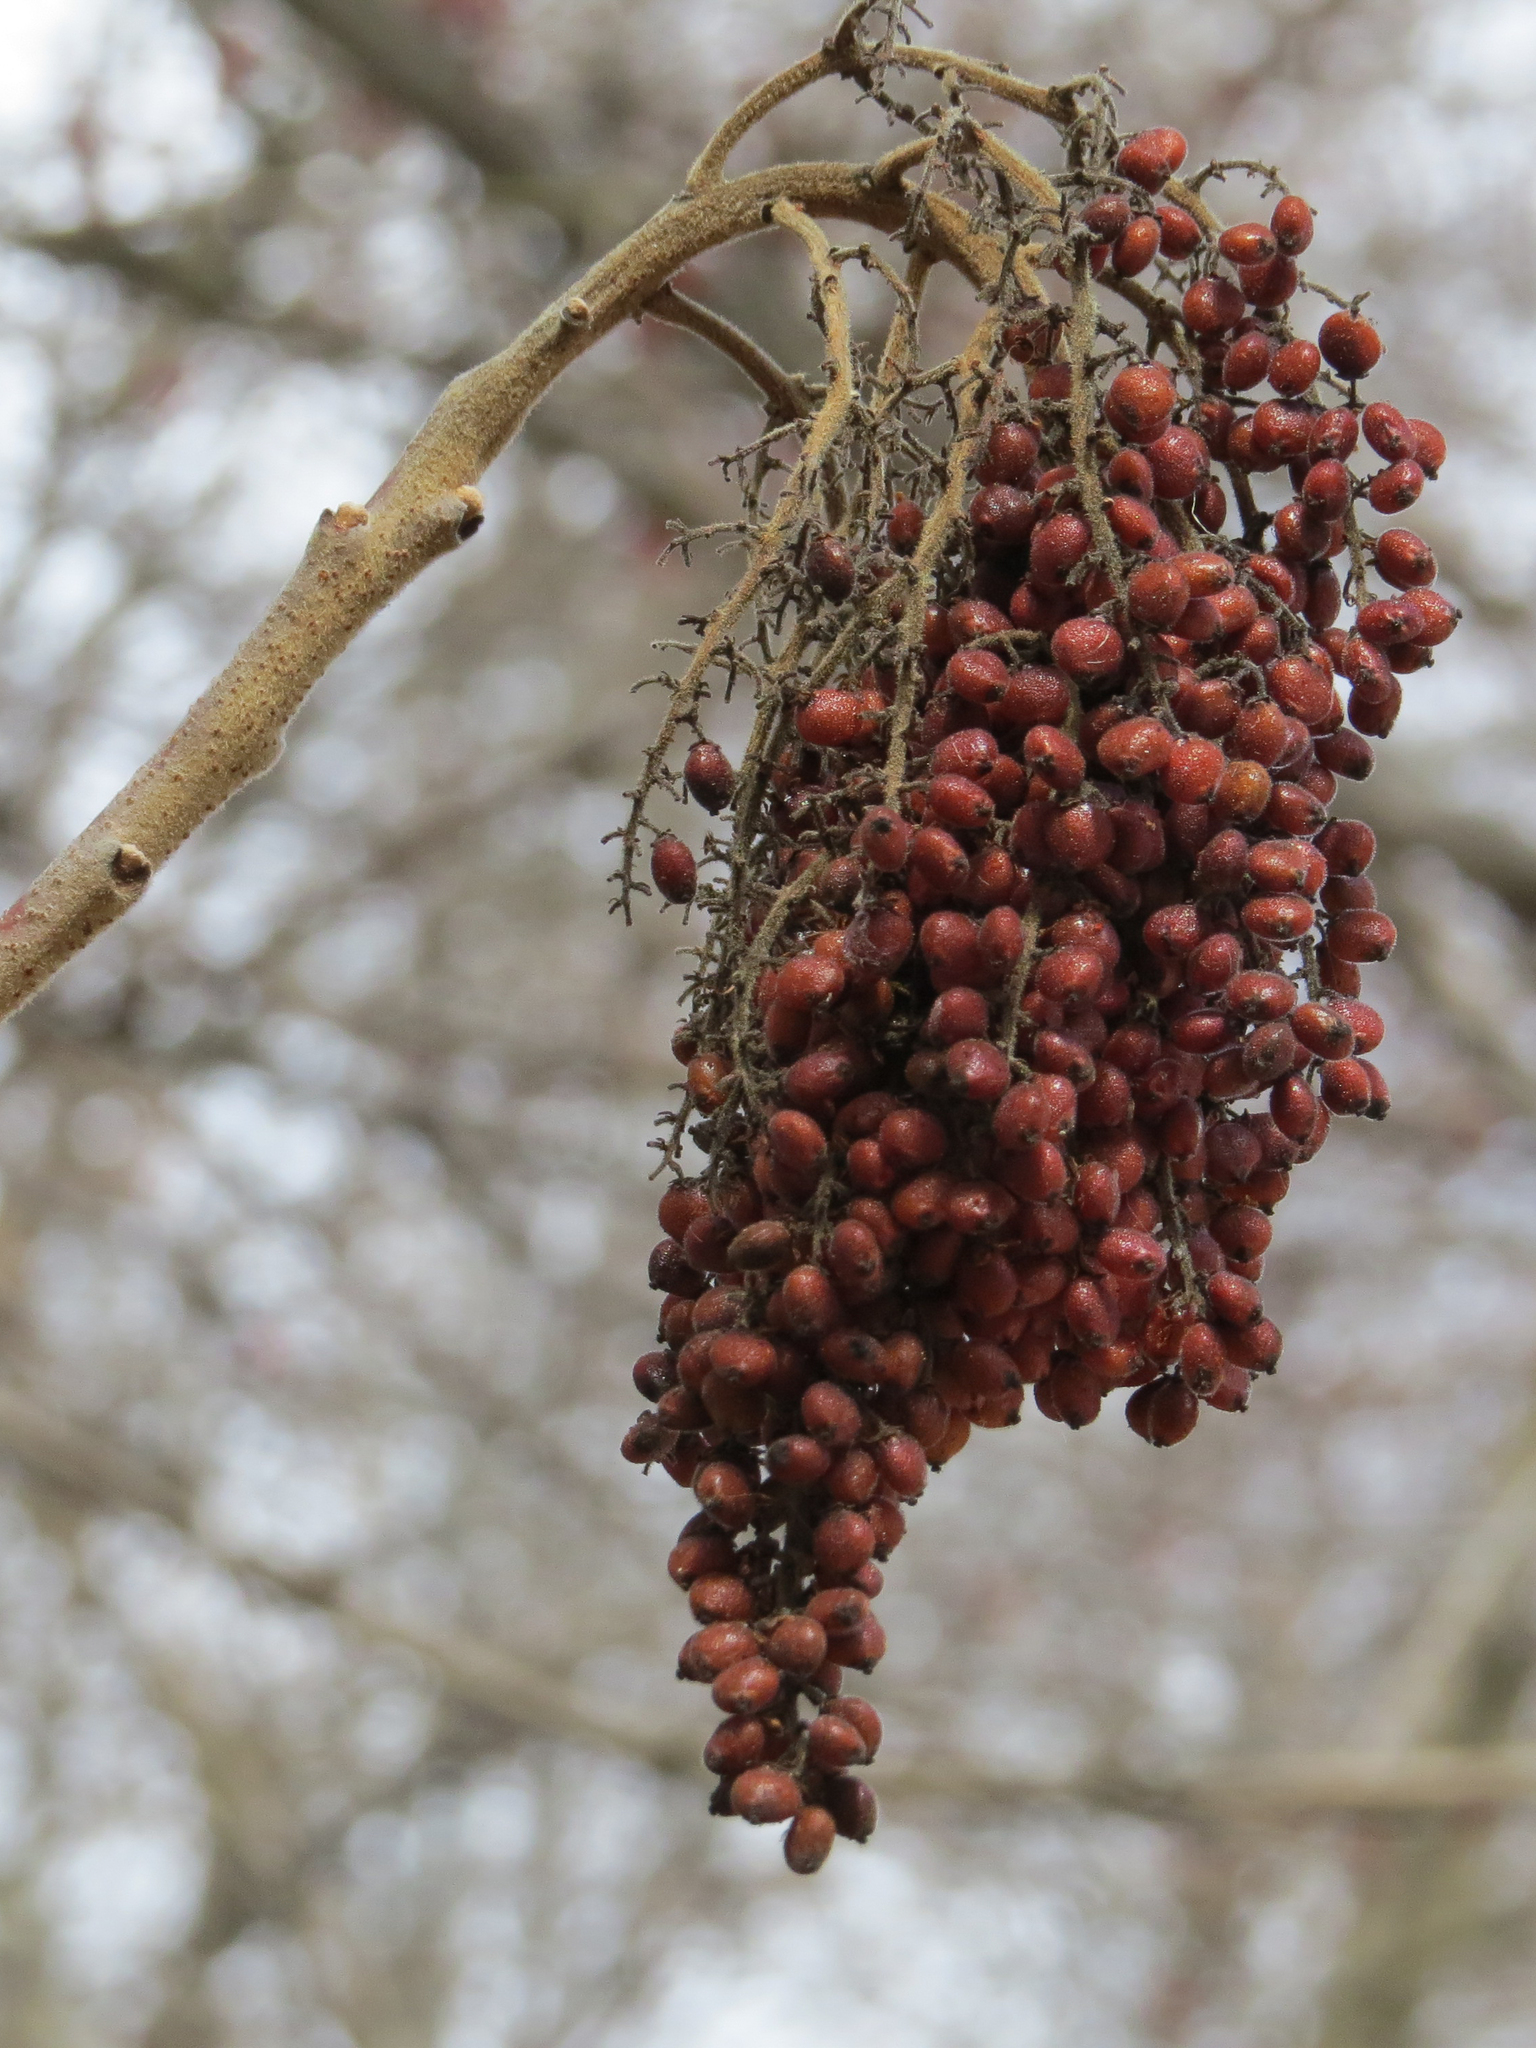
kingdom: Plantae
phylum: Tracheophyta
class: Magnoliopsida
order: Sapindales
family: Anacardiaceae
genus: Rhus
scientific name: Rhus typhina
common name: Staghorn sumac
